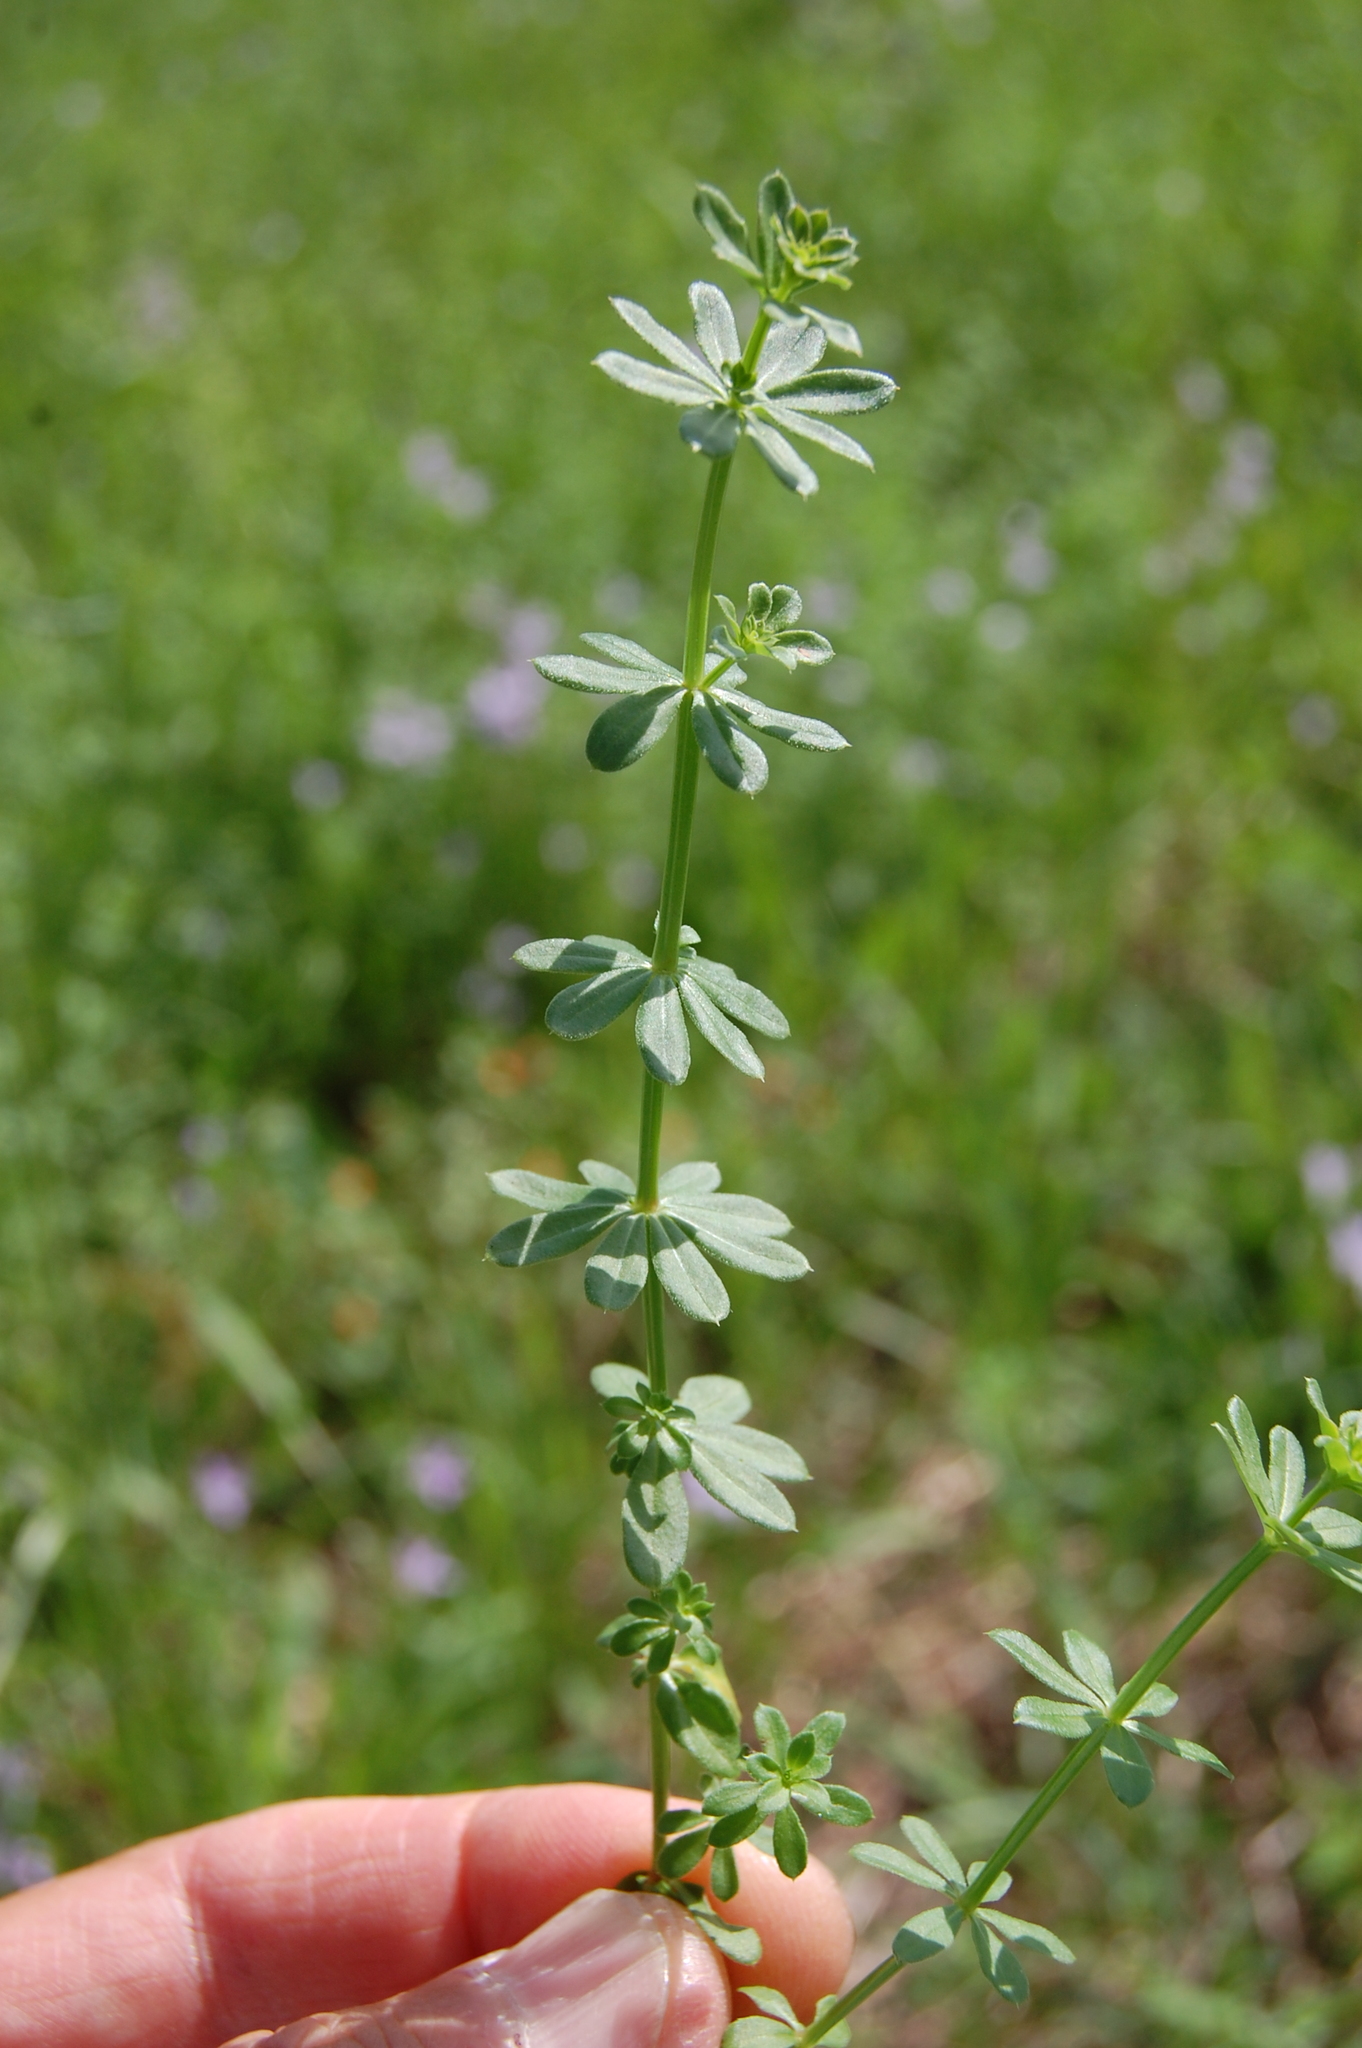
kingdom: Plantae
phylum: Tracheophyta
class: Magnoliopsida
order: Gentianales
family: Rubiaceae
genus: Galium
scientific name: Galium album
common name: White bedstraw
